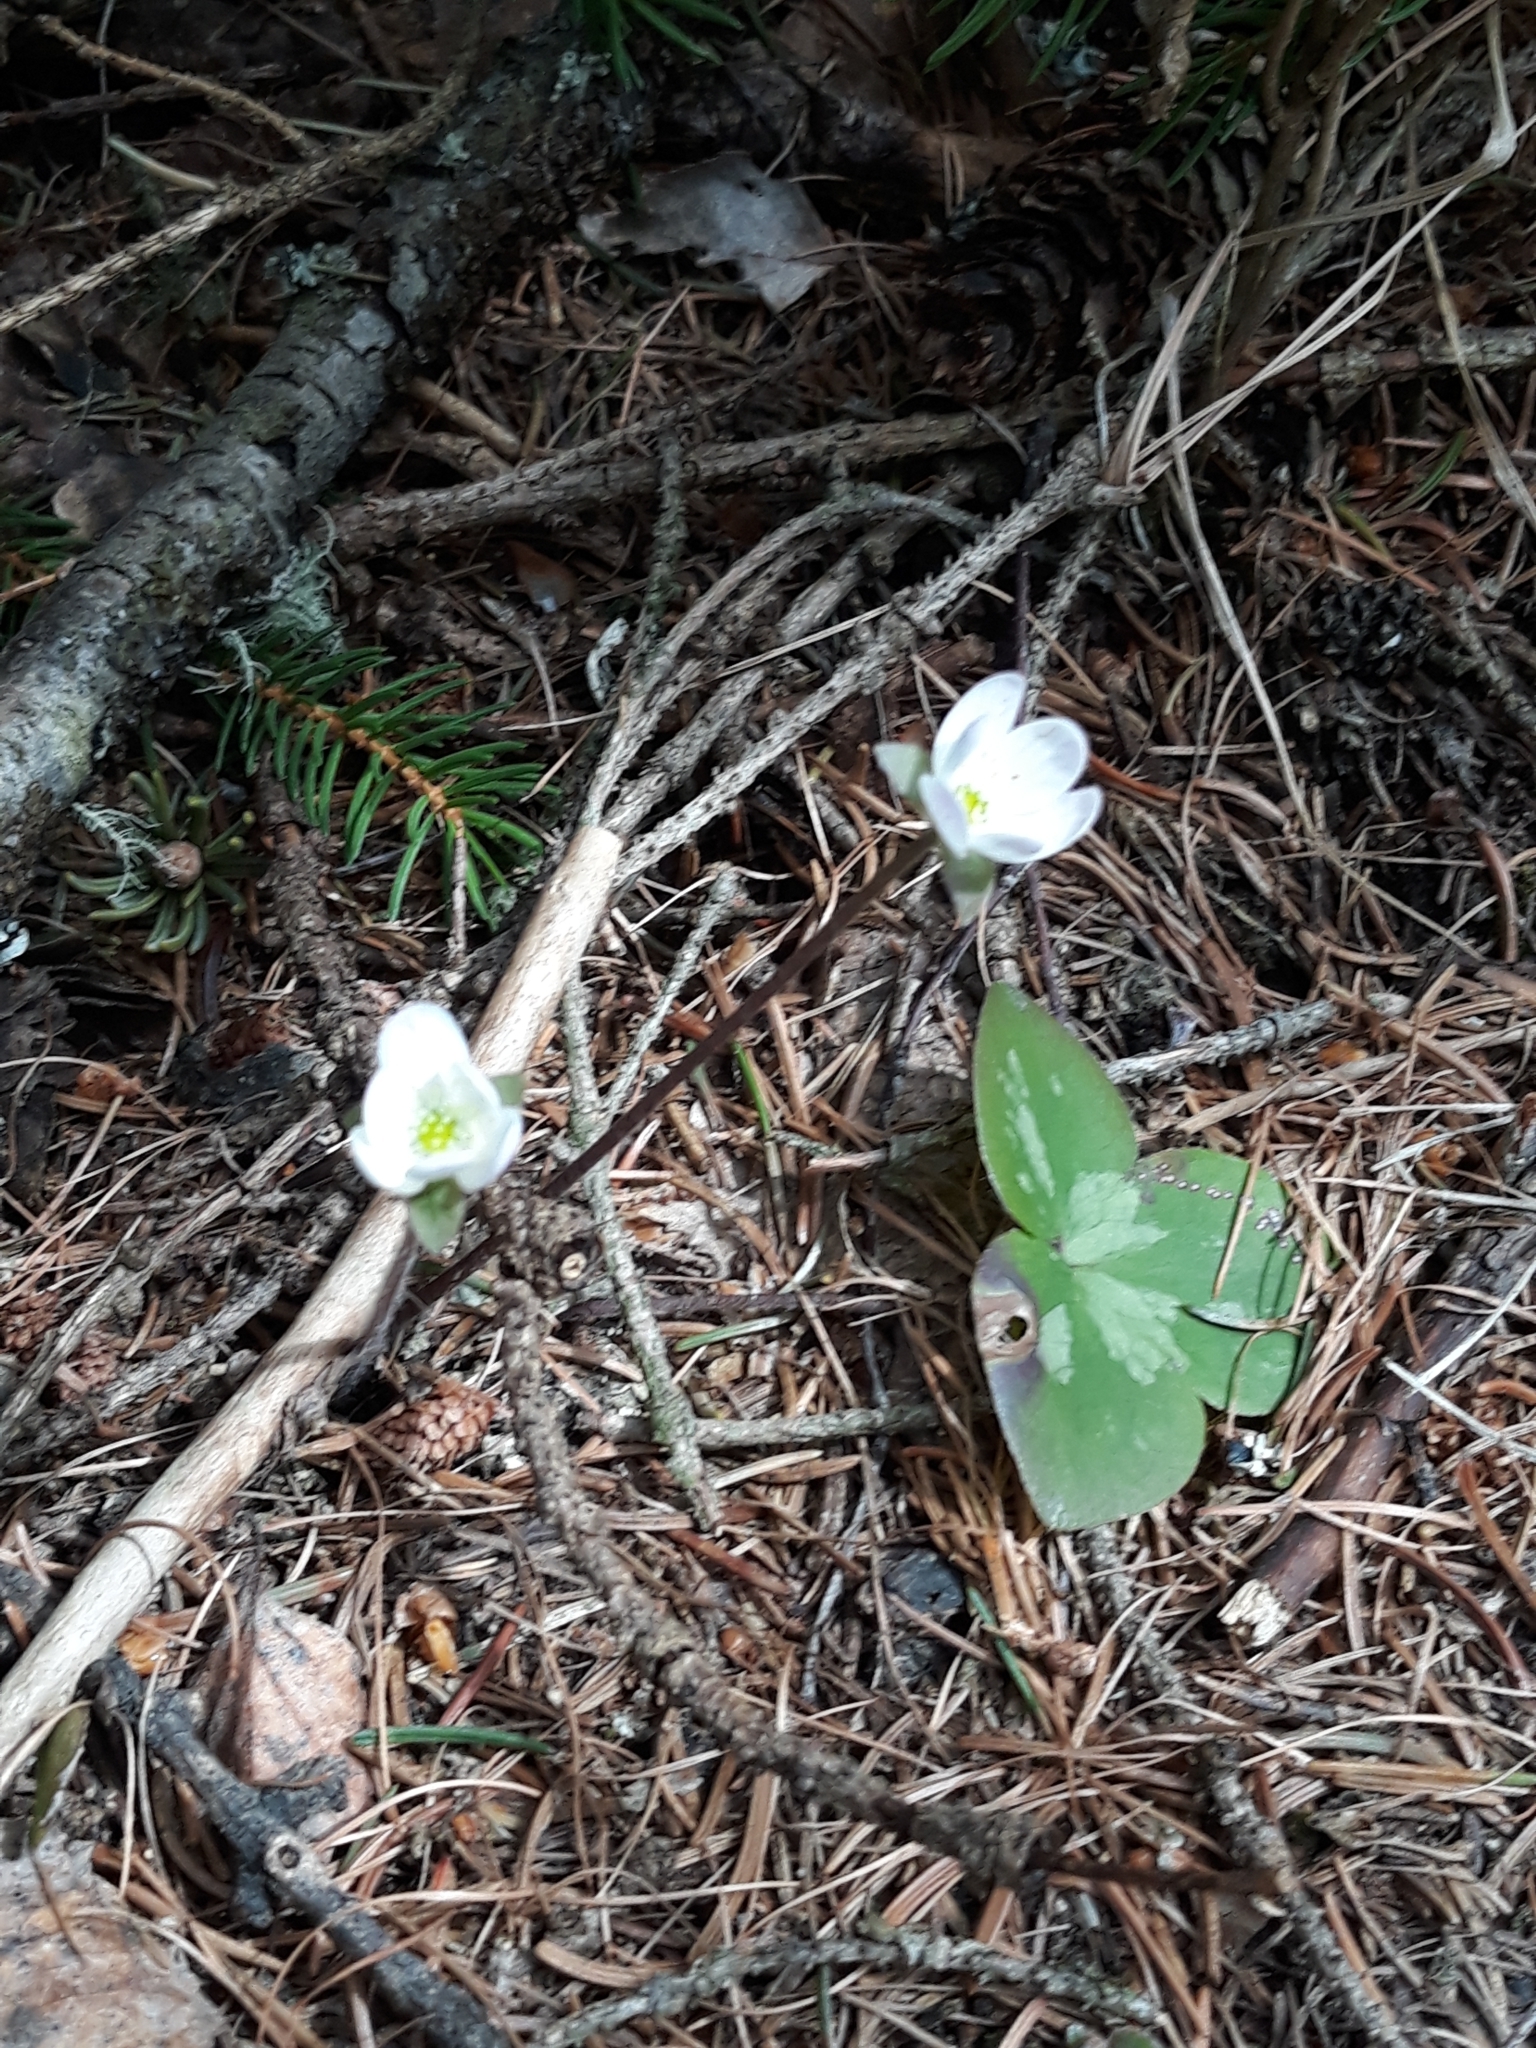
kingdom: Plantae
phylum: Tracheophyta
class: Magnoliopsida
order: Ranunculales
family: Ranunculaceae
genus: Hepatica
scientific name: Hepatica nobilis
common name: Liverleaf
